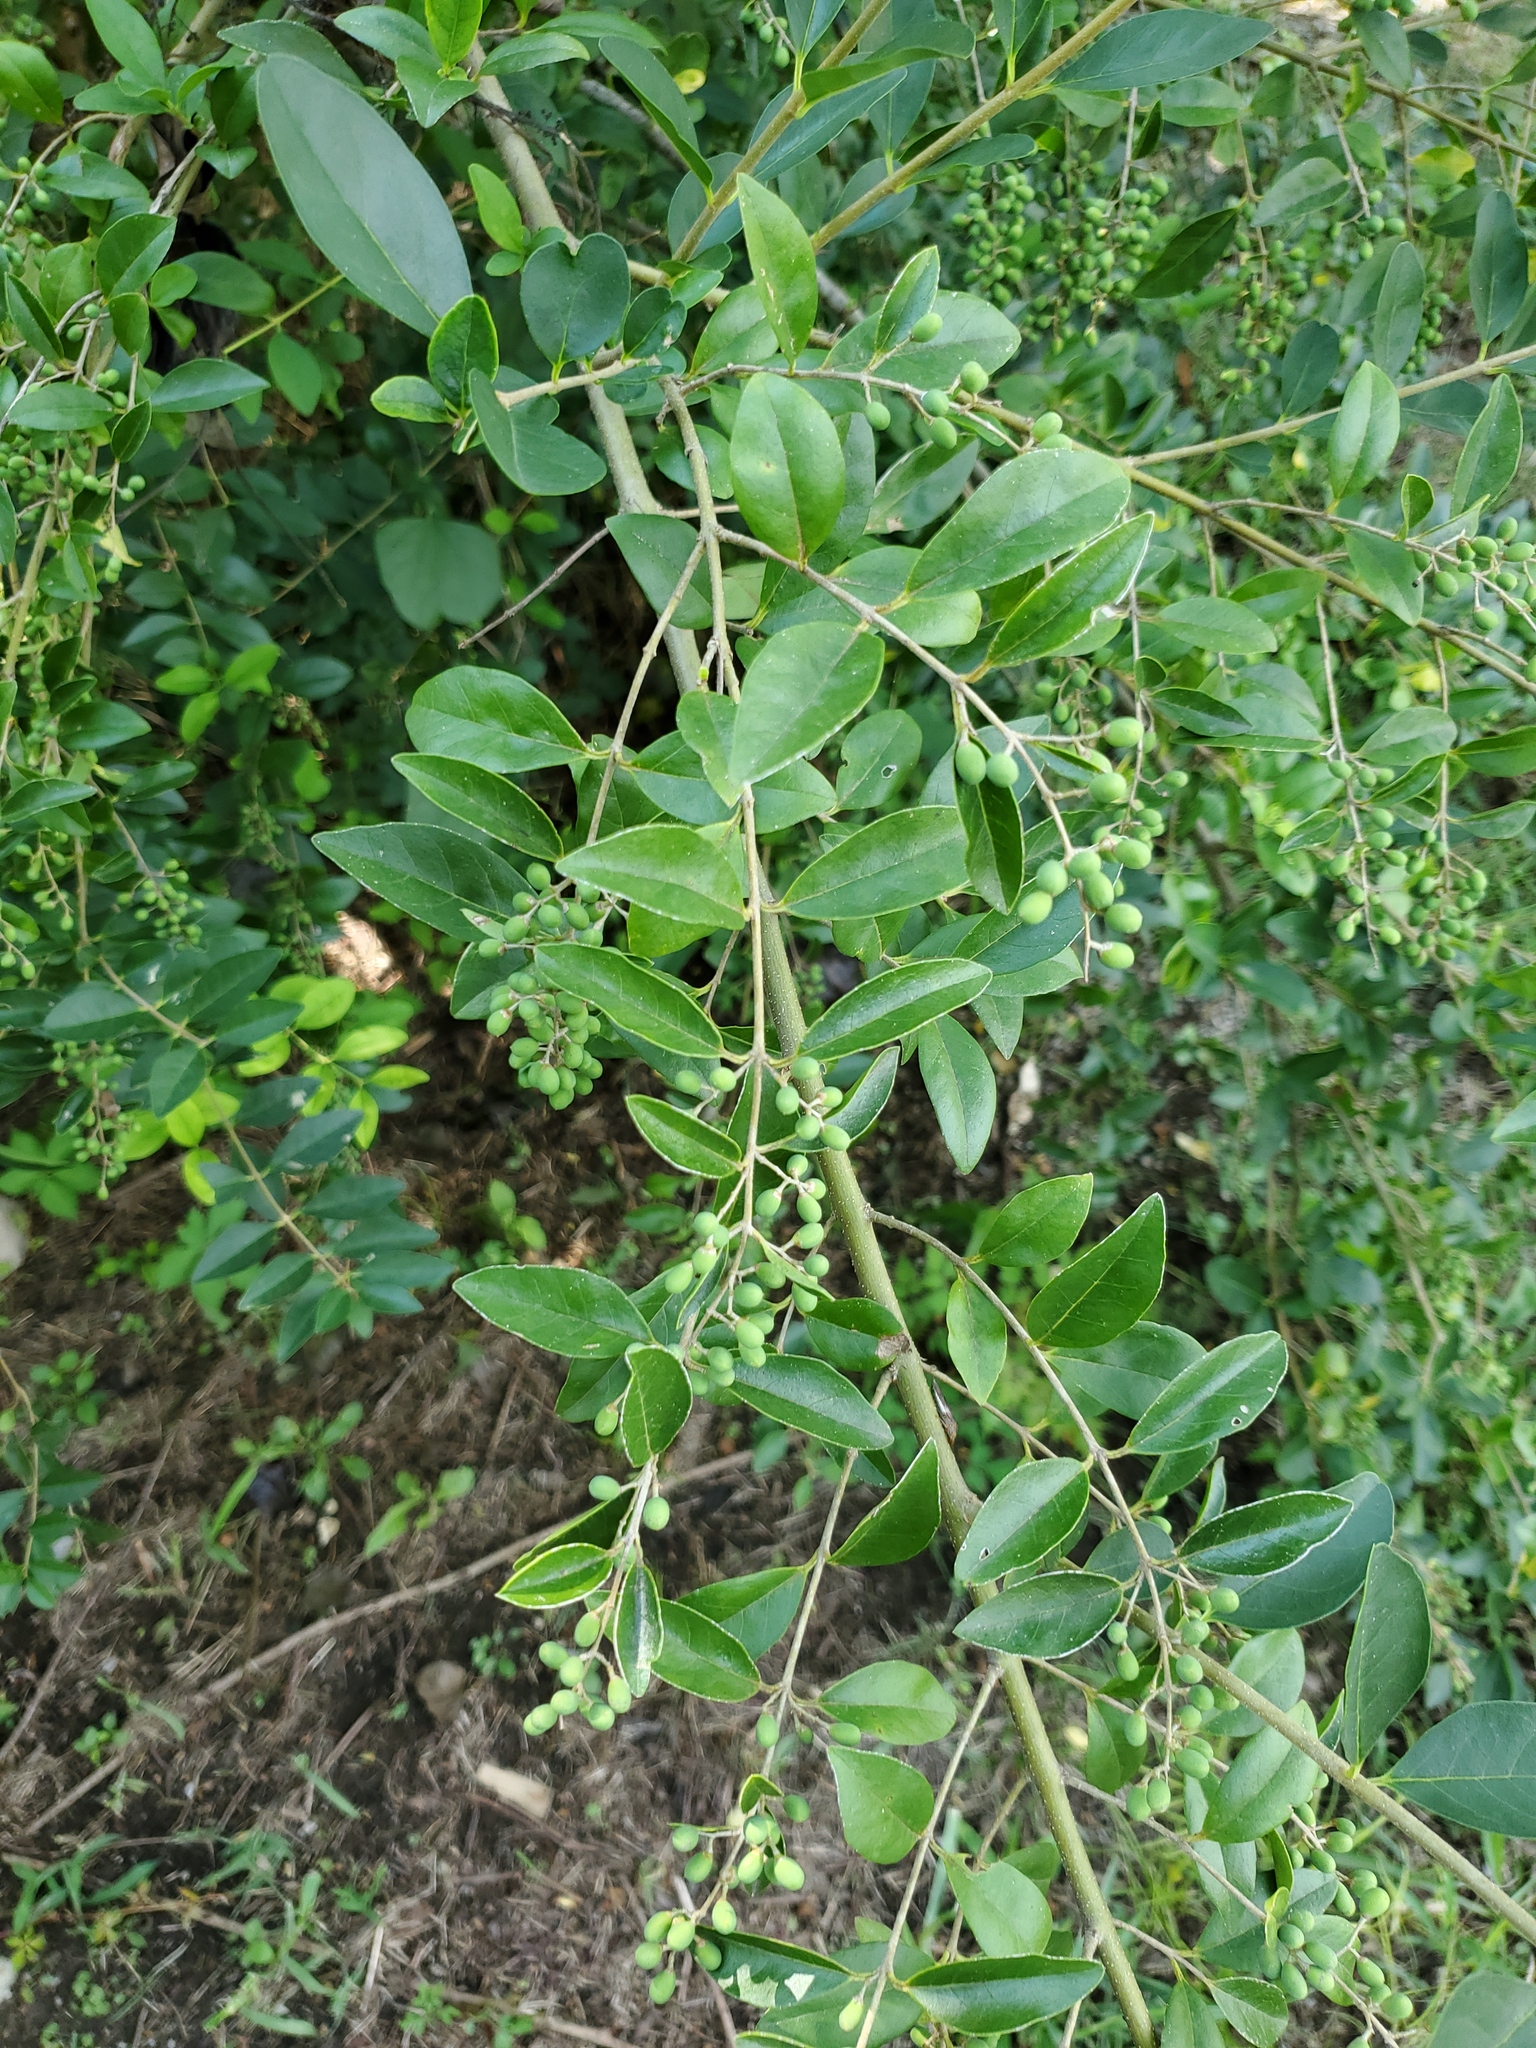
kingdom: Plantae
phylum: Tracheophyta
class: Magnoliopsida
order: Lamiales
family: Oleaceae
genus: Ligustrum
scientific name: Ligustrum sinense
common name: Chinese privet
